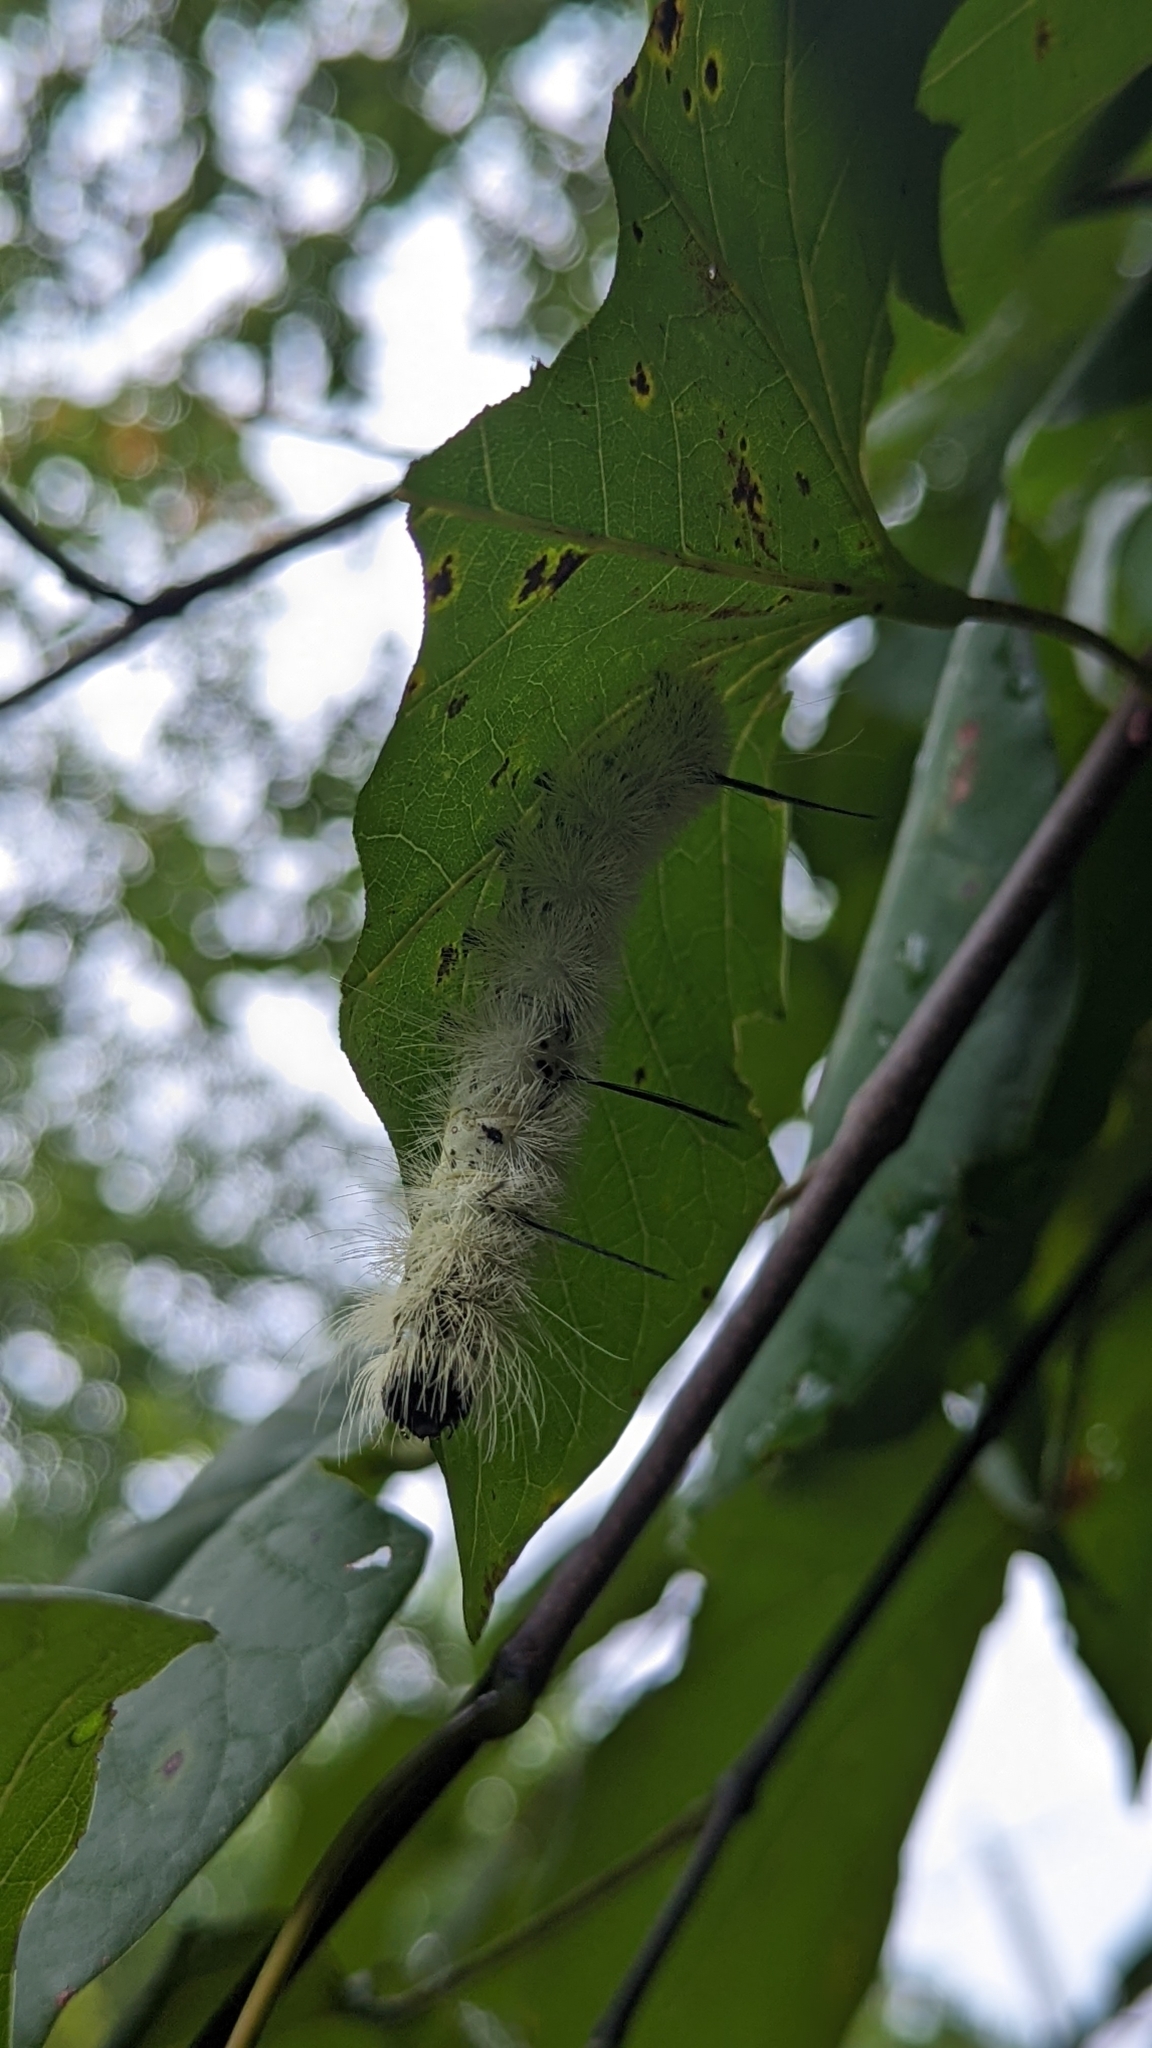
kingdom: Animalia
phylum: Arthropoda
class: Insecta
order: Lepidoptera
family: Noctuidae
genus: Acronicta
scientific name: Acronicta americana
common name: American dagger
